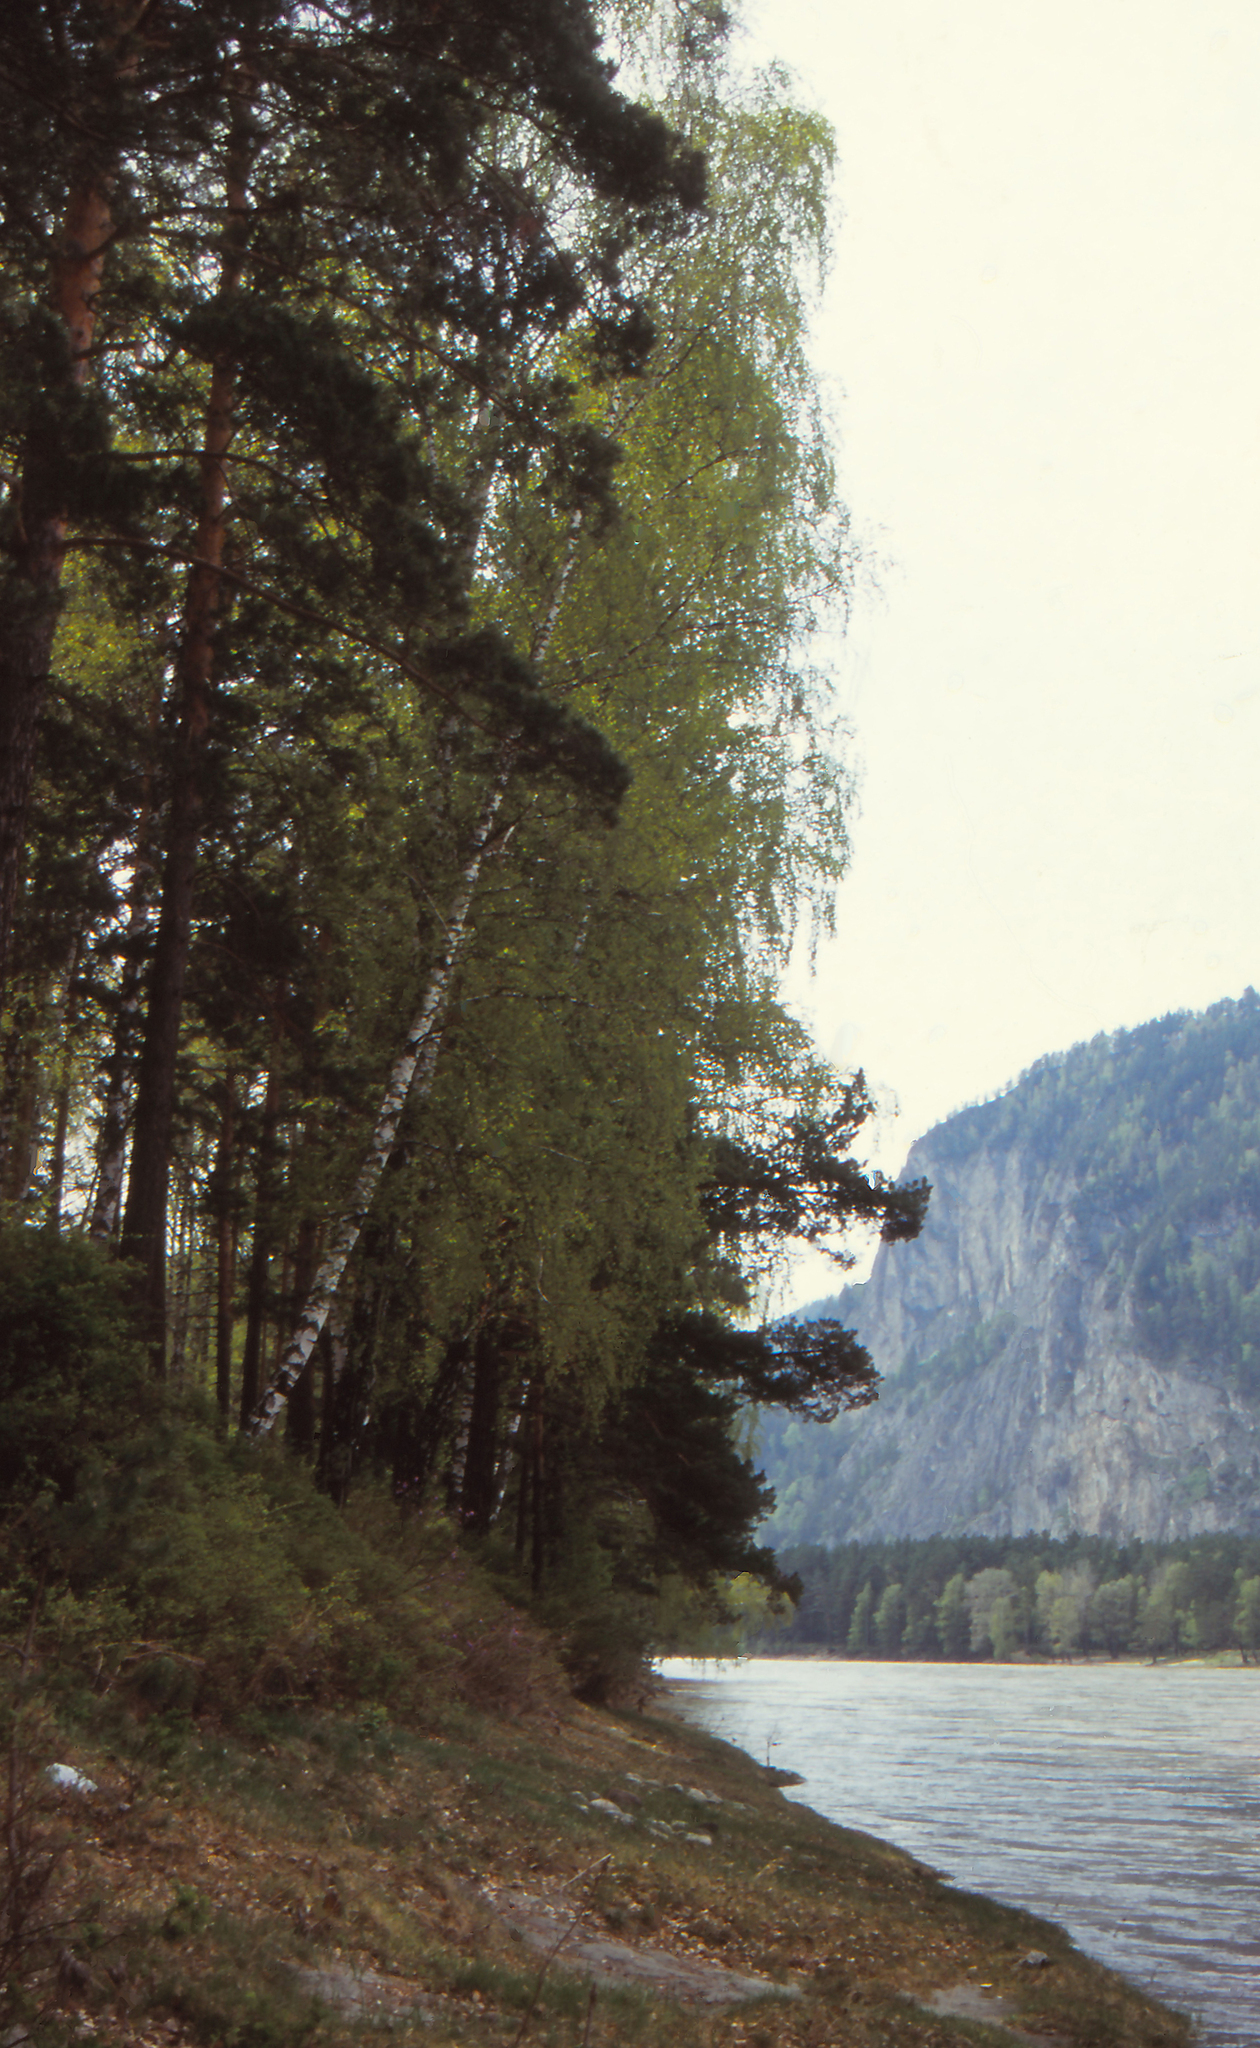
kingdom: Plantae
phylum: Tracheophyta
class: Magnoliopsida
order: Fagales
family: Betulaceae
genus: Betula
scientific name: Betula pendula
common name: Silver birch
